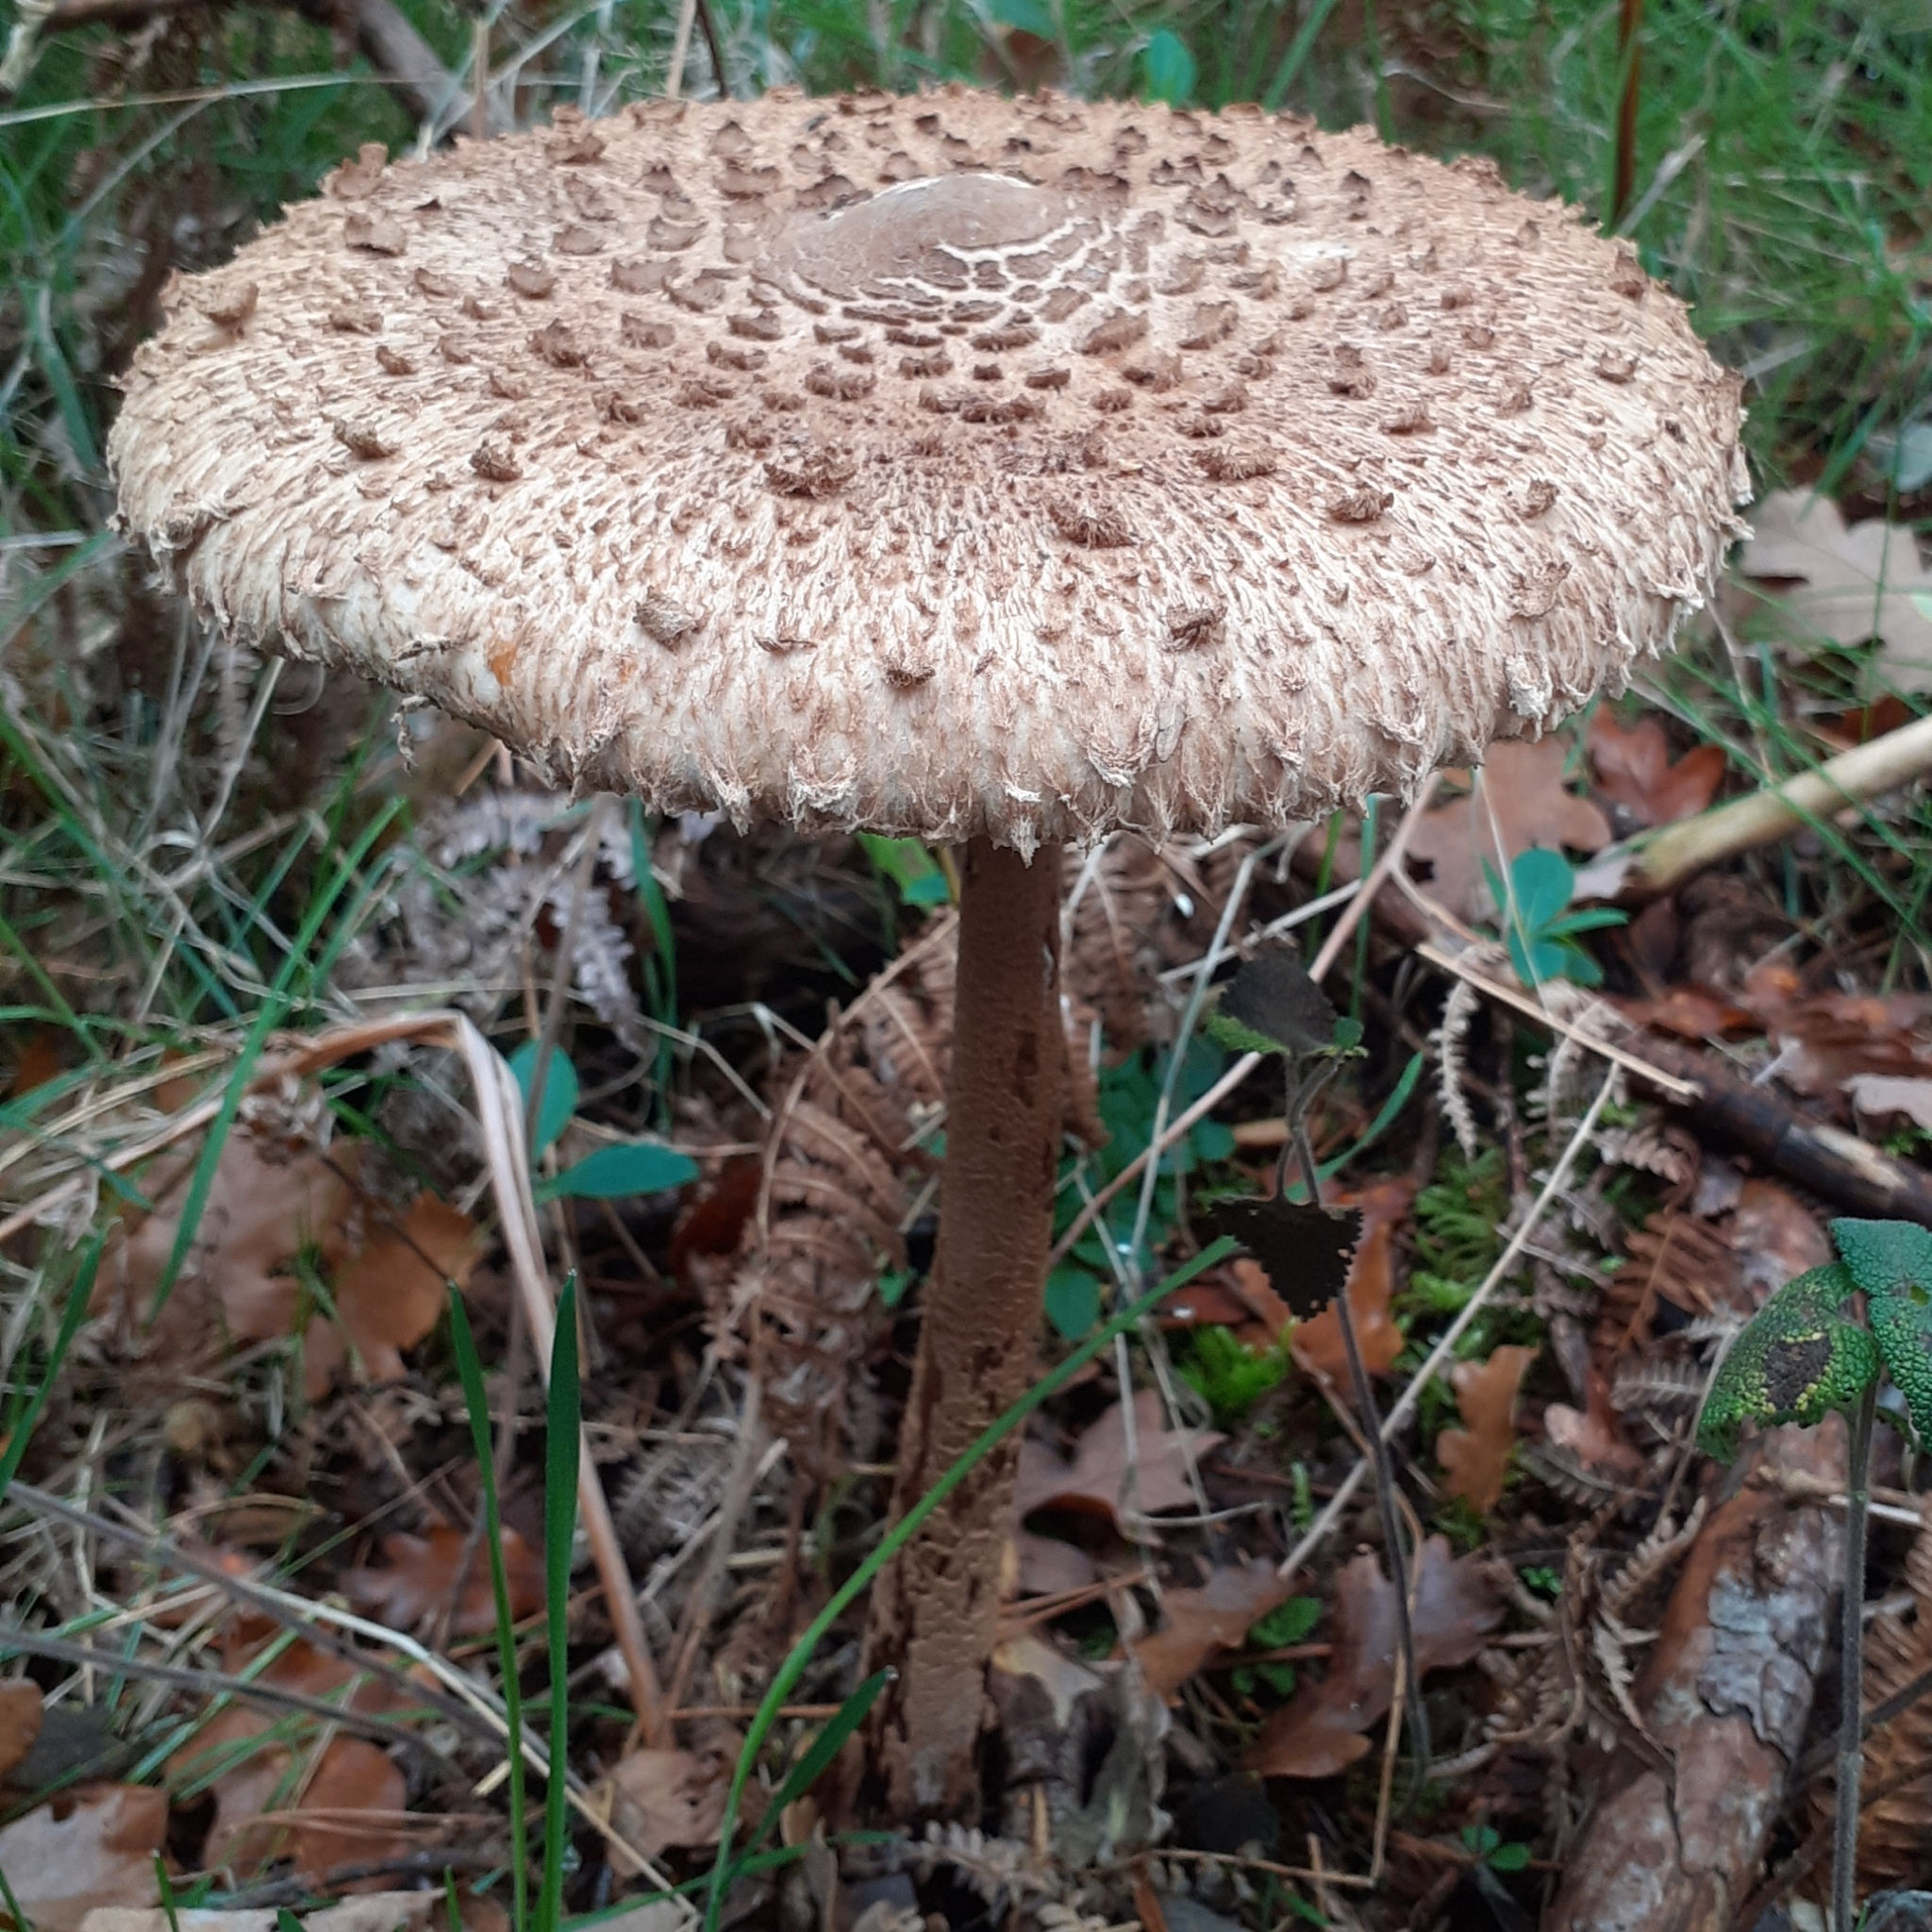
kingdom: Fungi
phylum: Basidiomycota
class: Agaricomycetes
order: Agaricales
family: Agaricaceae
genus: Macrolepiota
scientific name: Macrolepiota procera
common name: Parasol
